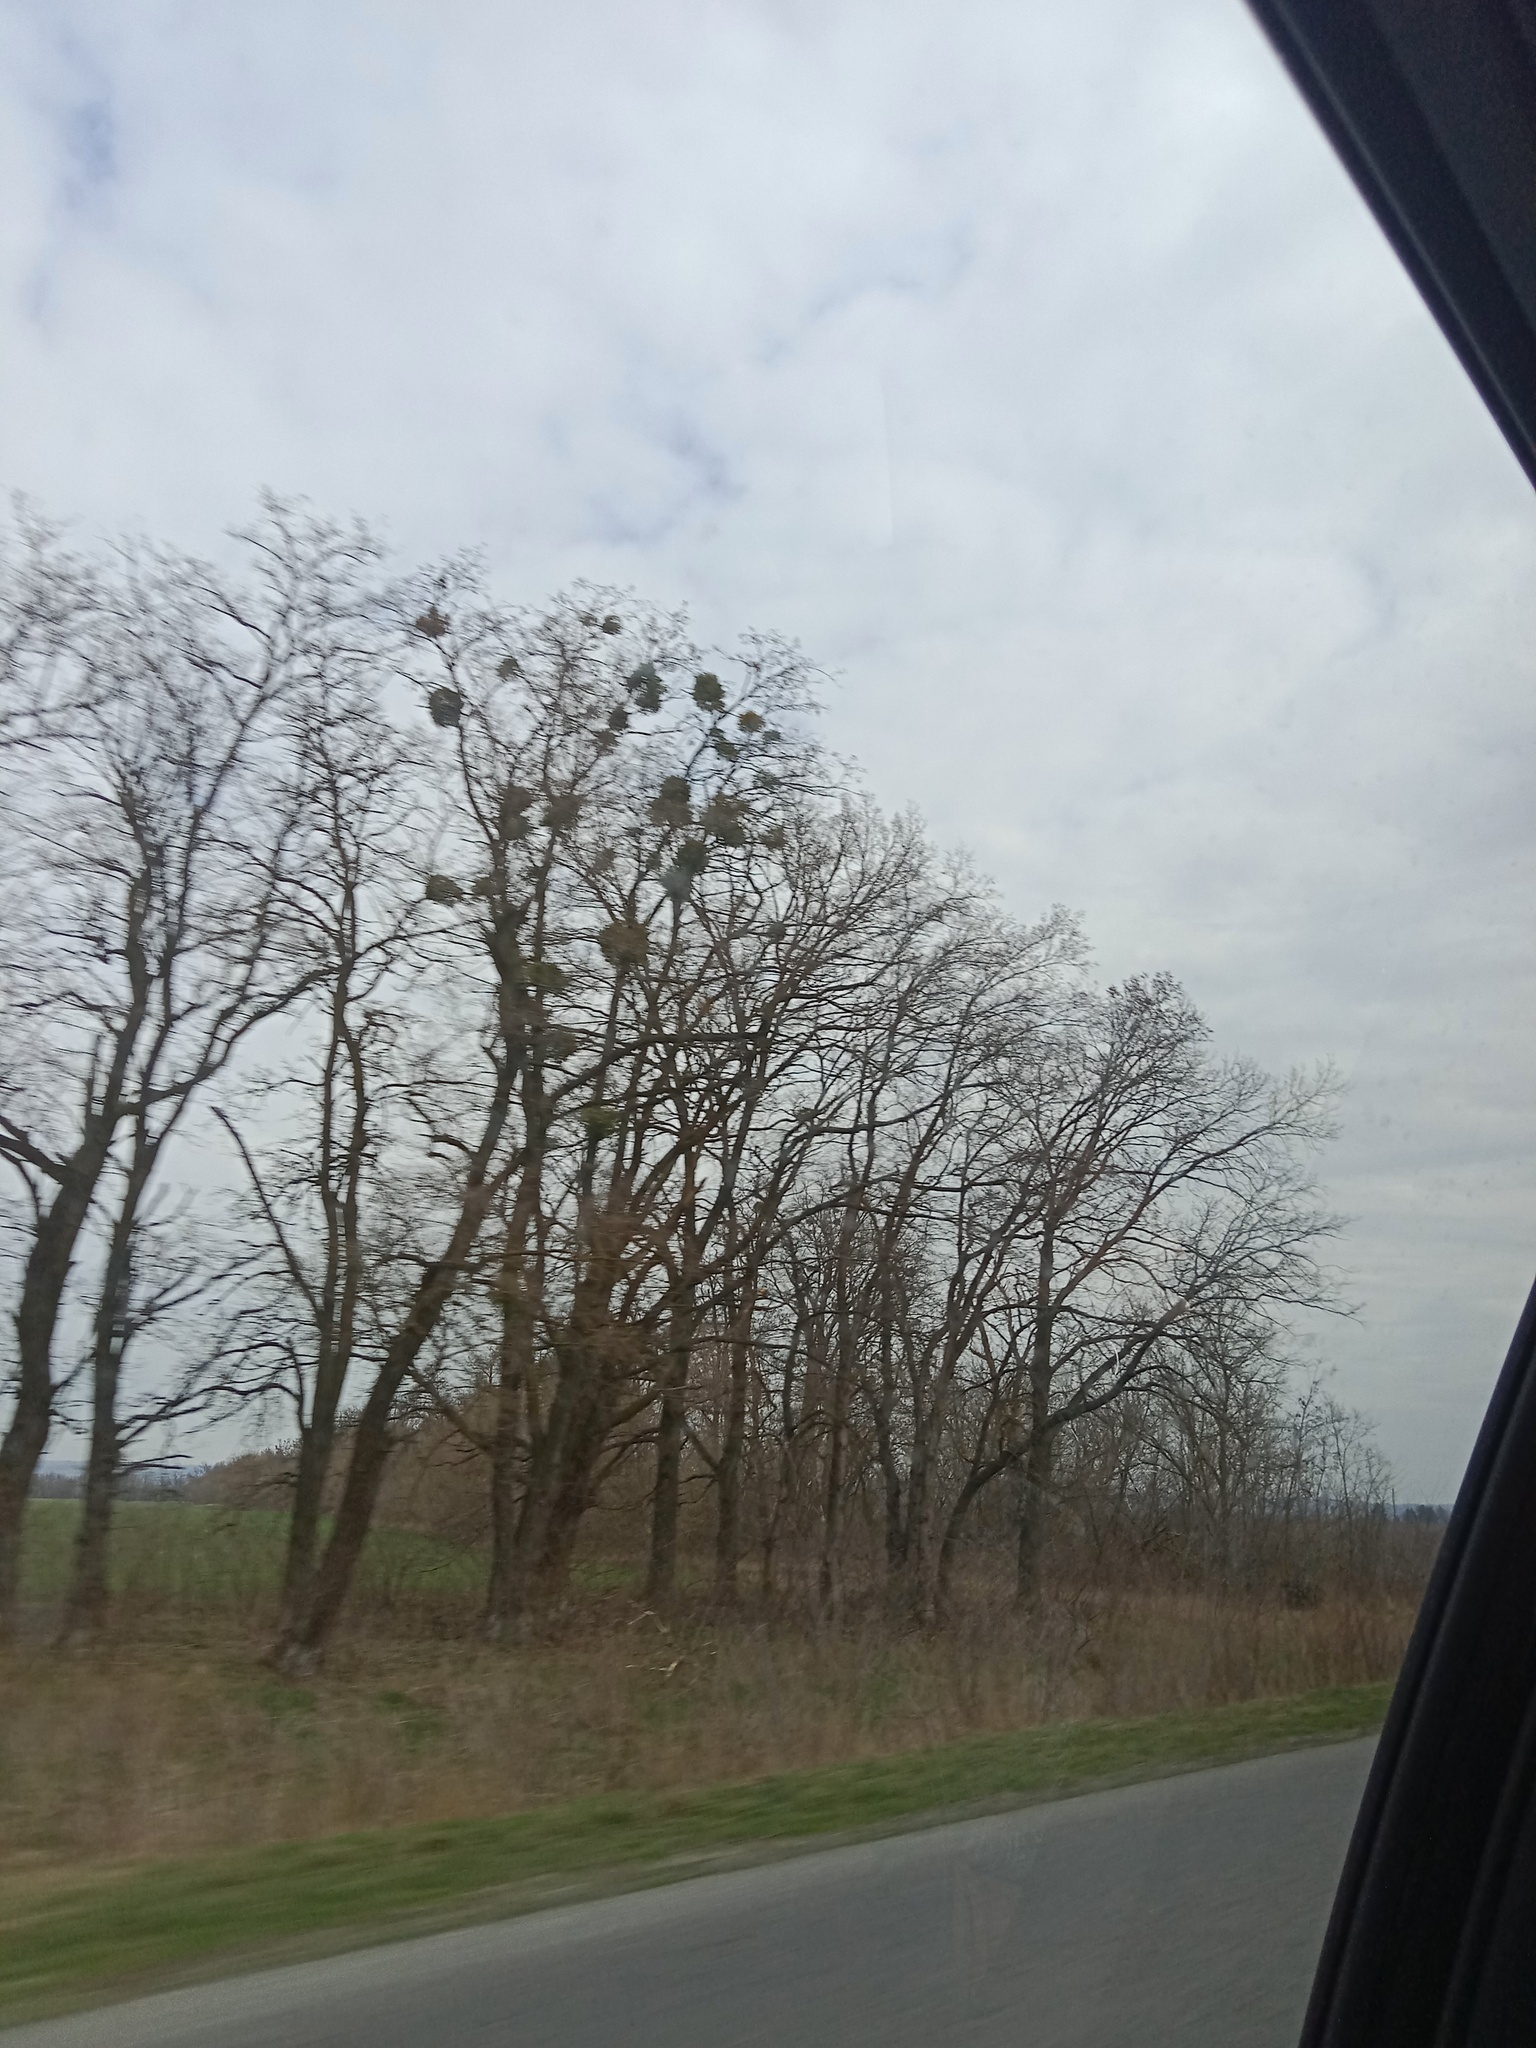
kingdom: Plantae
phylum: Tracheophyta
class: Magnoliopsida
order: Santalales
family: Viscaceae
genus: Viscum
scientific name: Viscum album
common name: Mistletoe
